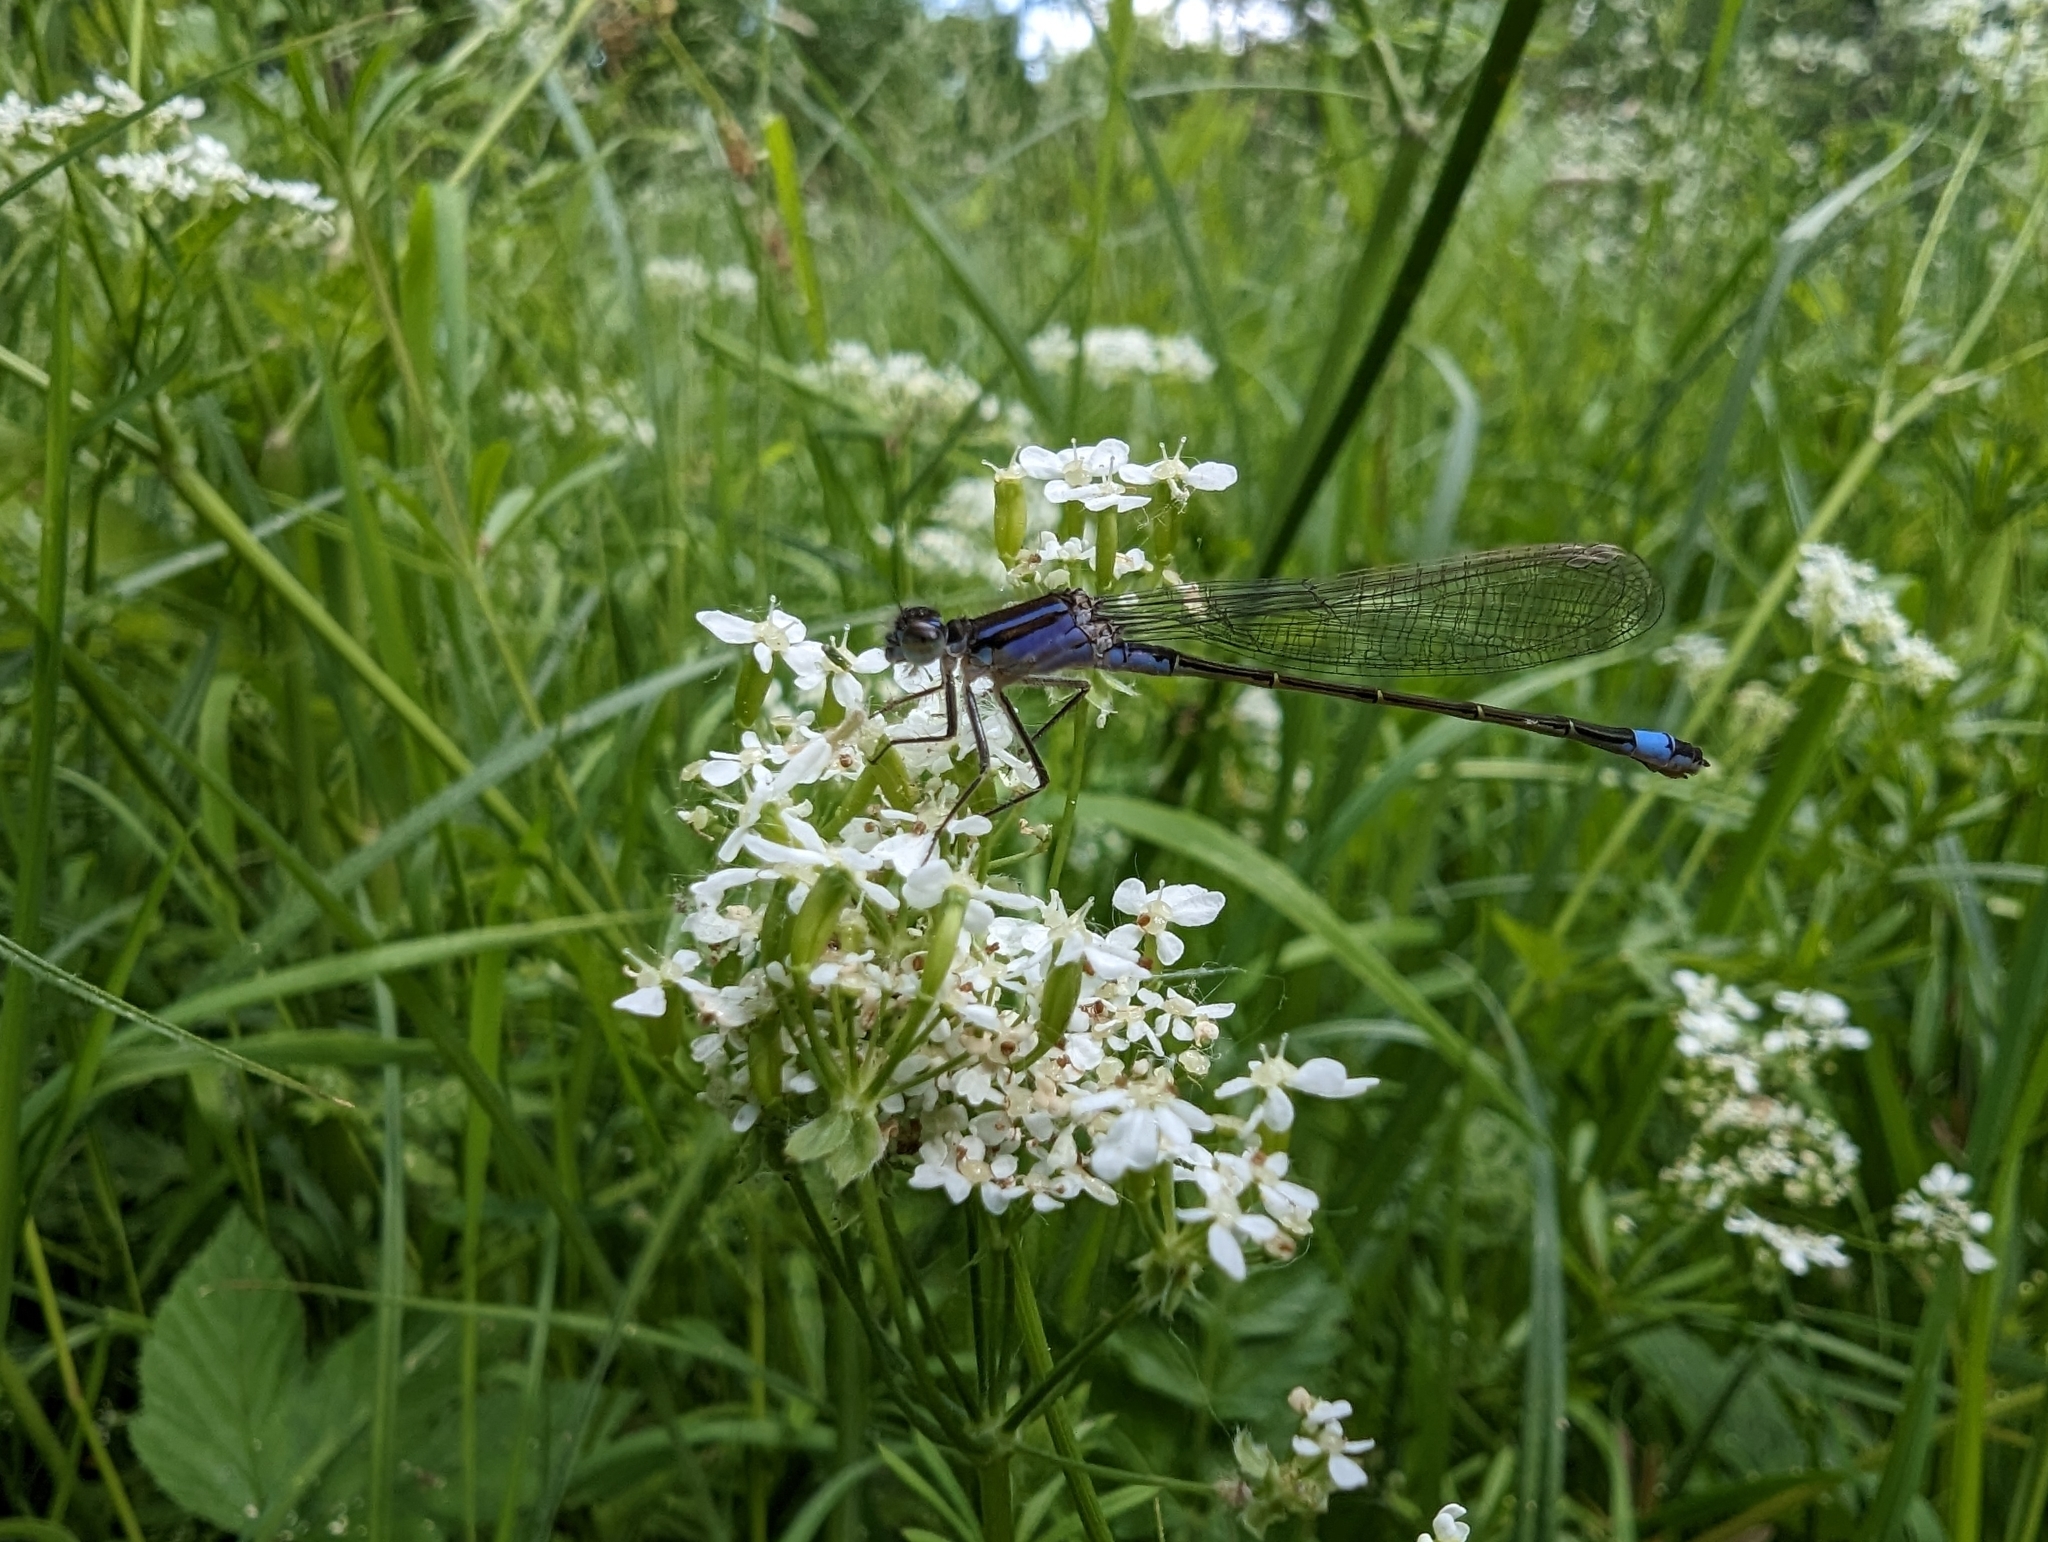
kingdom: Animalia
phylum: Arthropoda
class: Insecta
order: Odonata
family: Coenagrionidae
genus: Ischnura
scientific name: Ischnura elegans
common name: Blue-tailed damselfly
